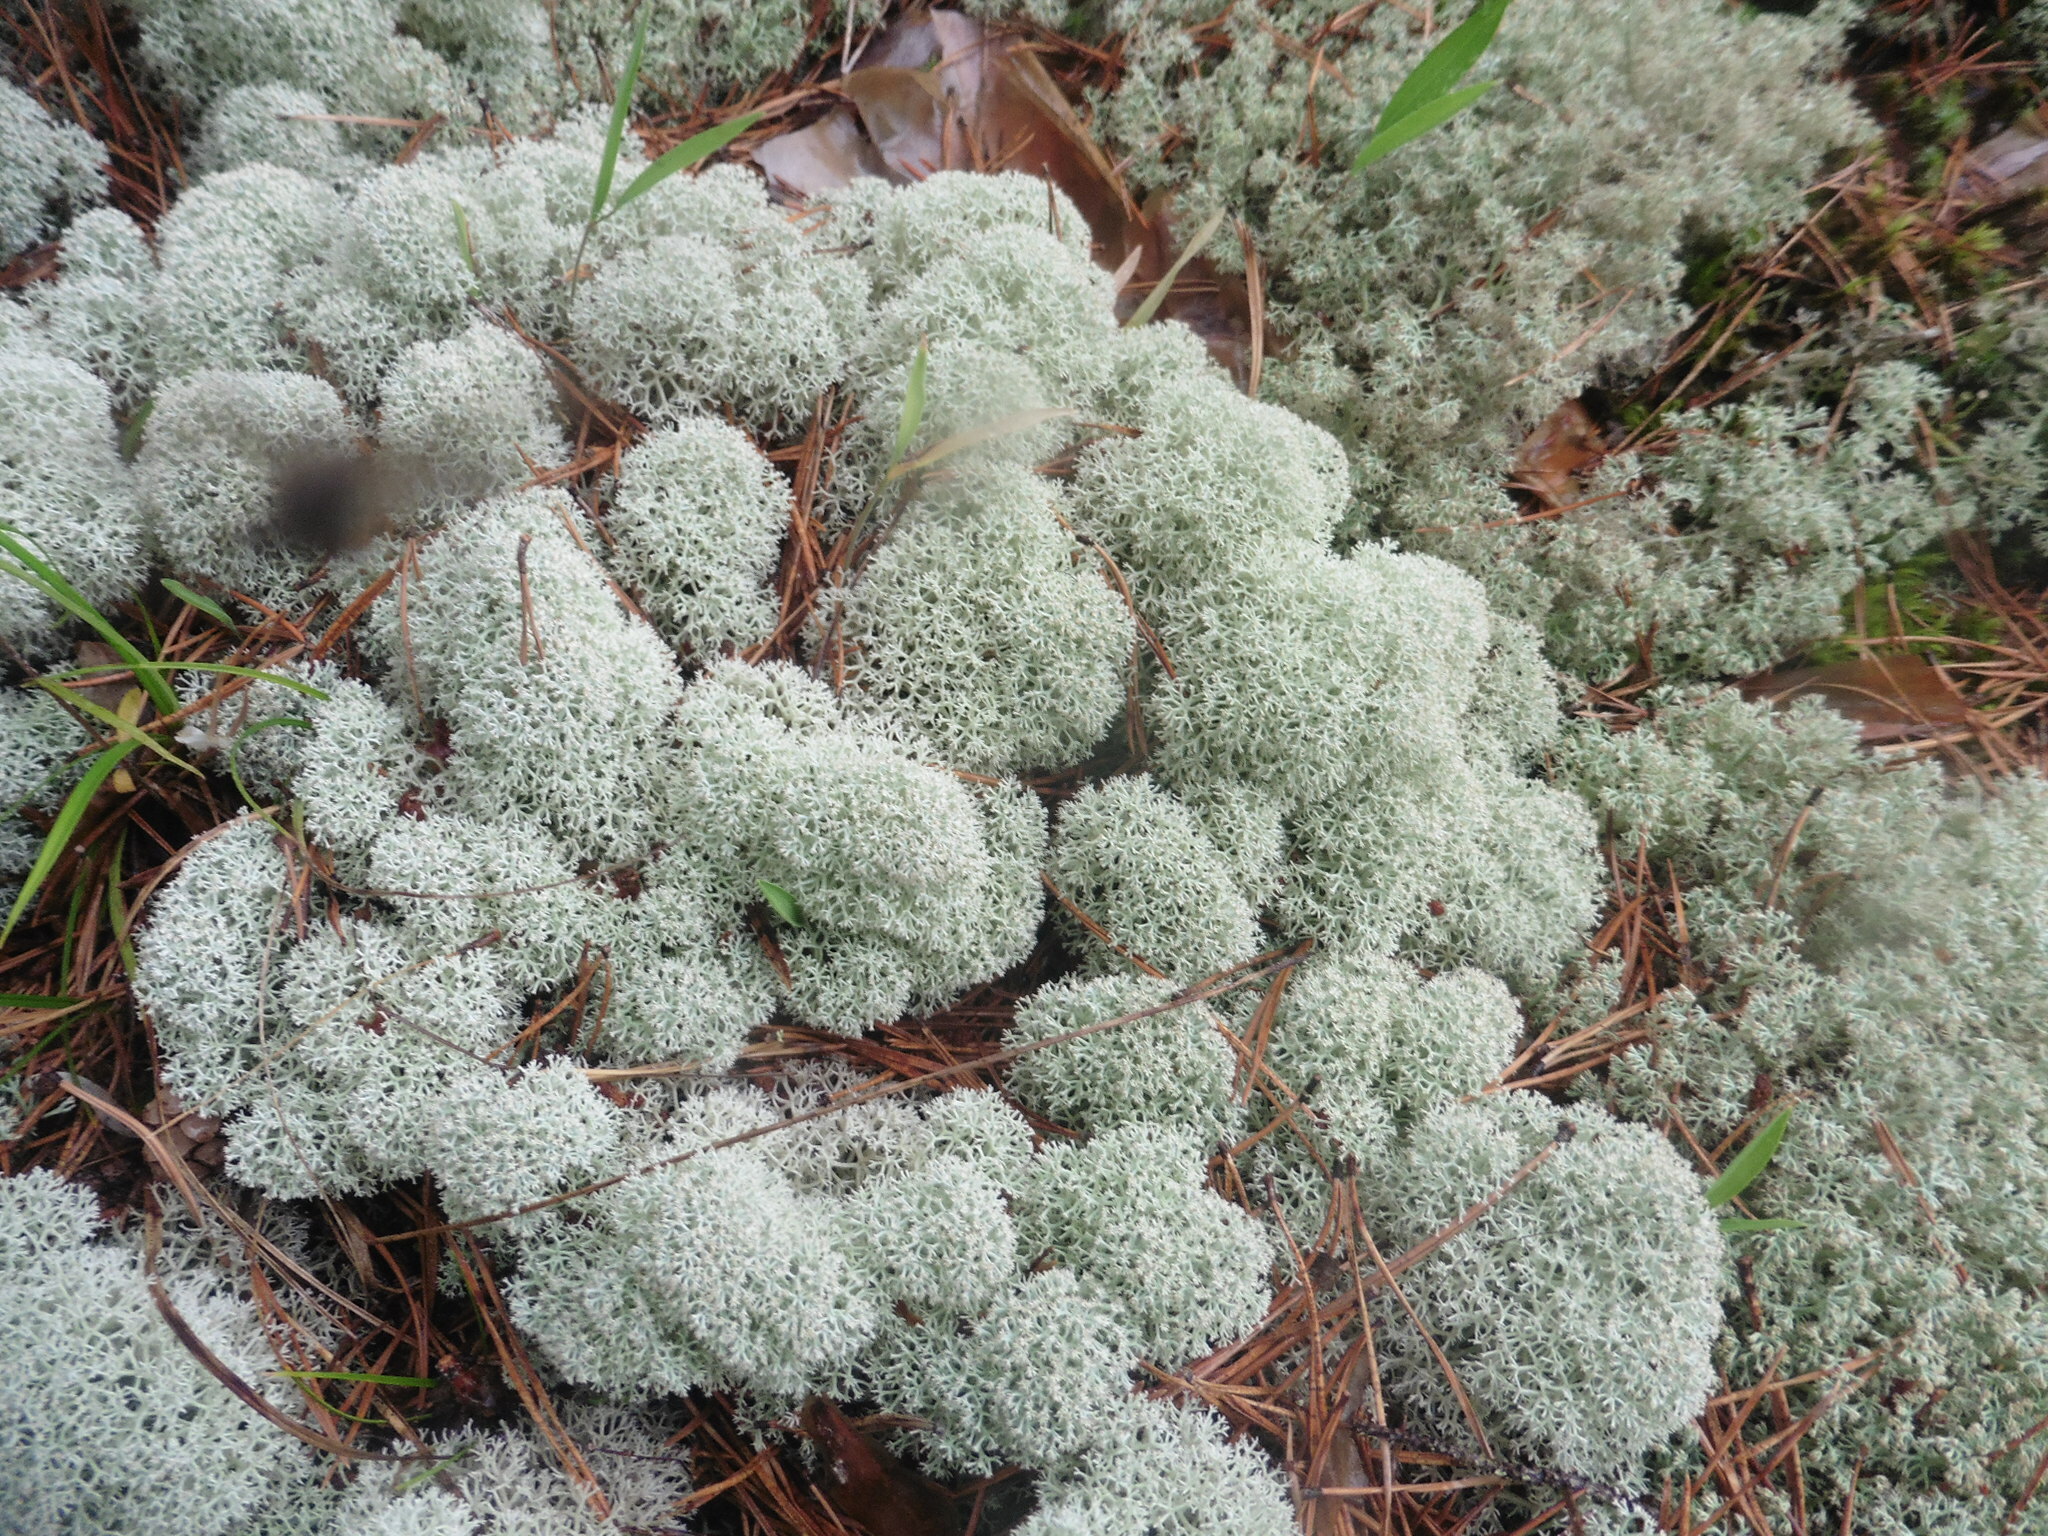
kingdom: Fungi
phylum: Ascomycota
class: Lecanoromycetes
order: Lecanorales
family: Cladoniaceae
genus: Cladonia
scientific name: Cladonia stellaris
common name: Star-tipped reindeer lichen
